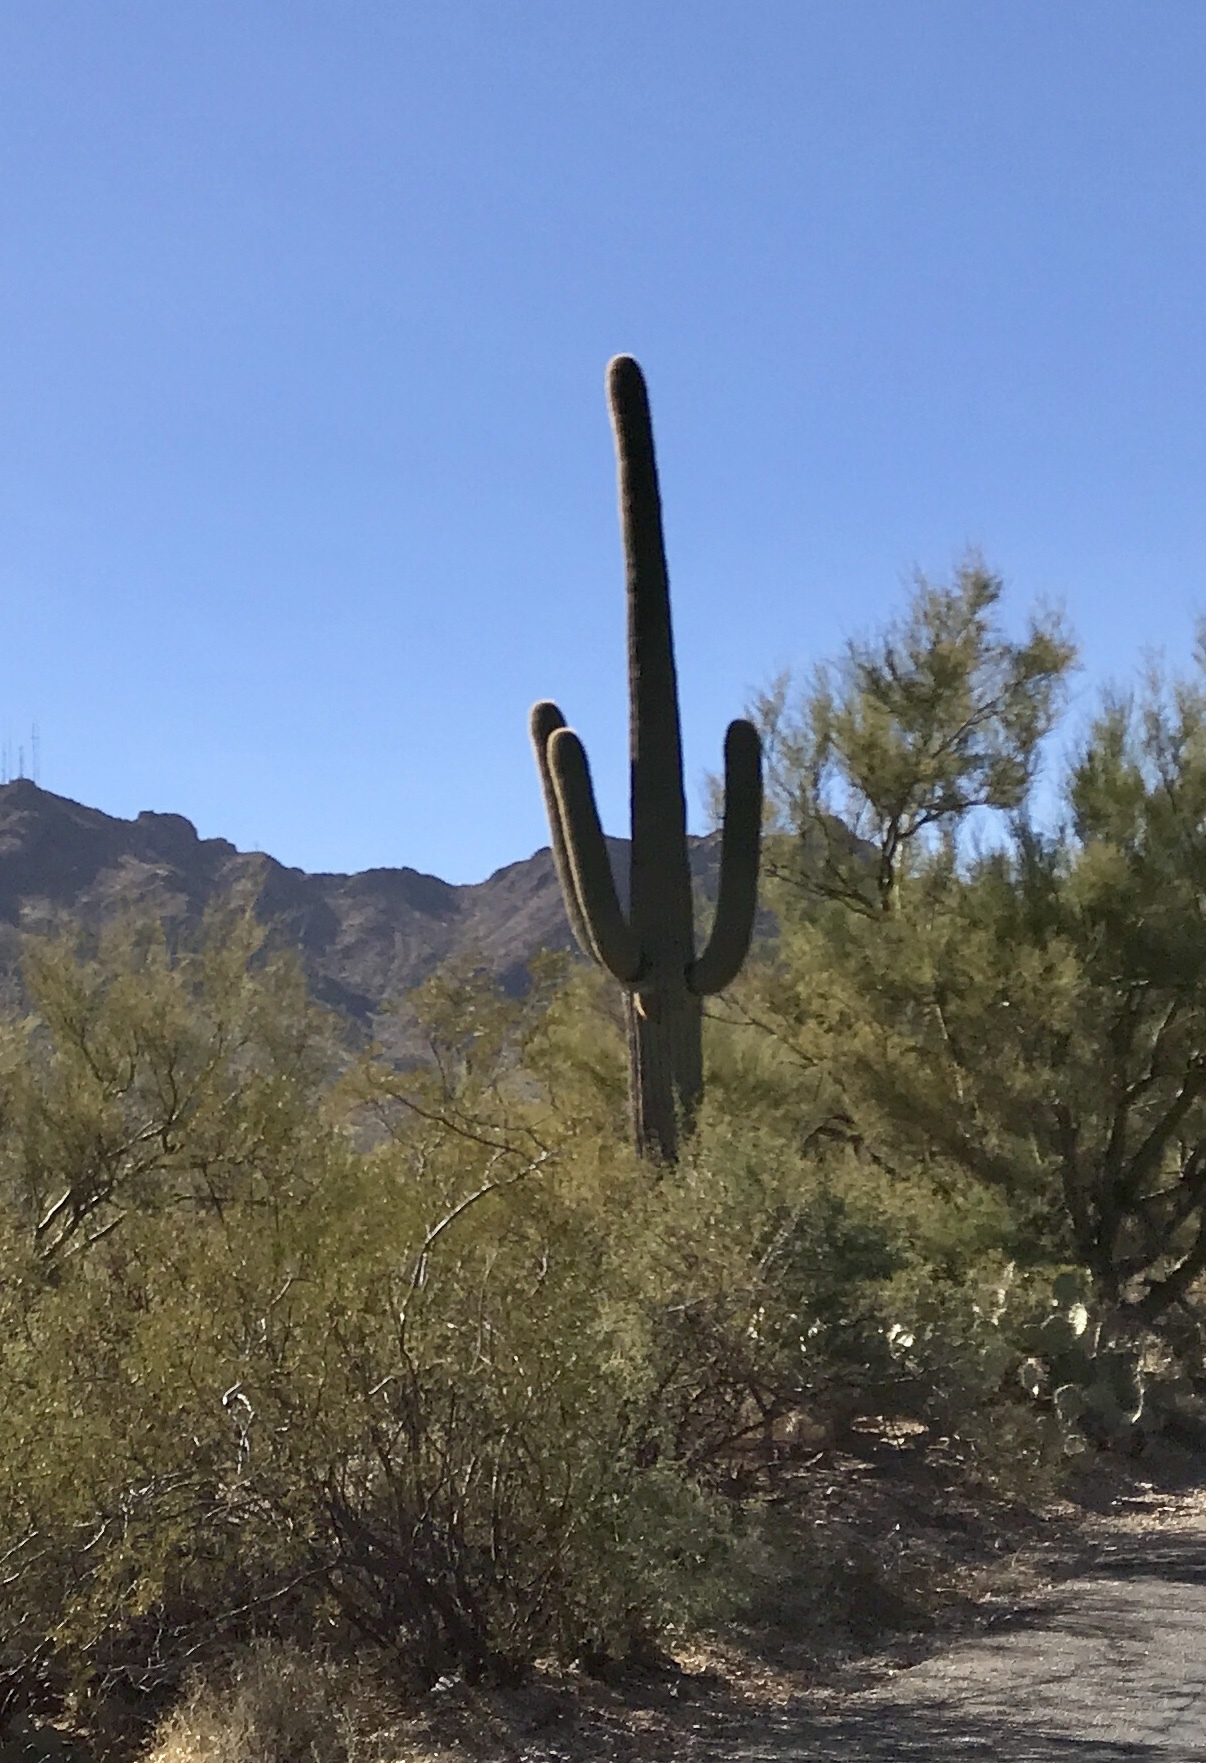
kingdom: Plantae
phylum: Tracheophyta
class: Magnoliopsida
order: Caryophyllales
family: Cactaceae
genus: Carnegiea
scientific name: Carnegiea gigantea
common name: Saguaro
